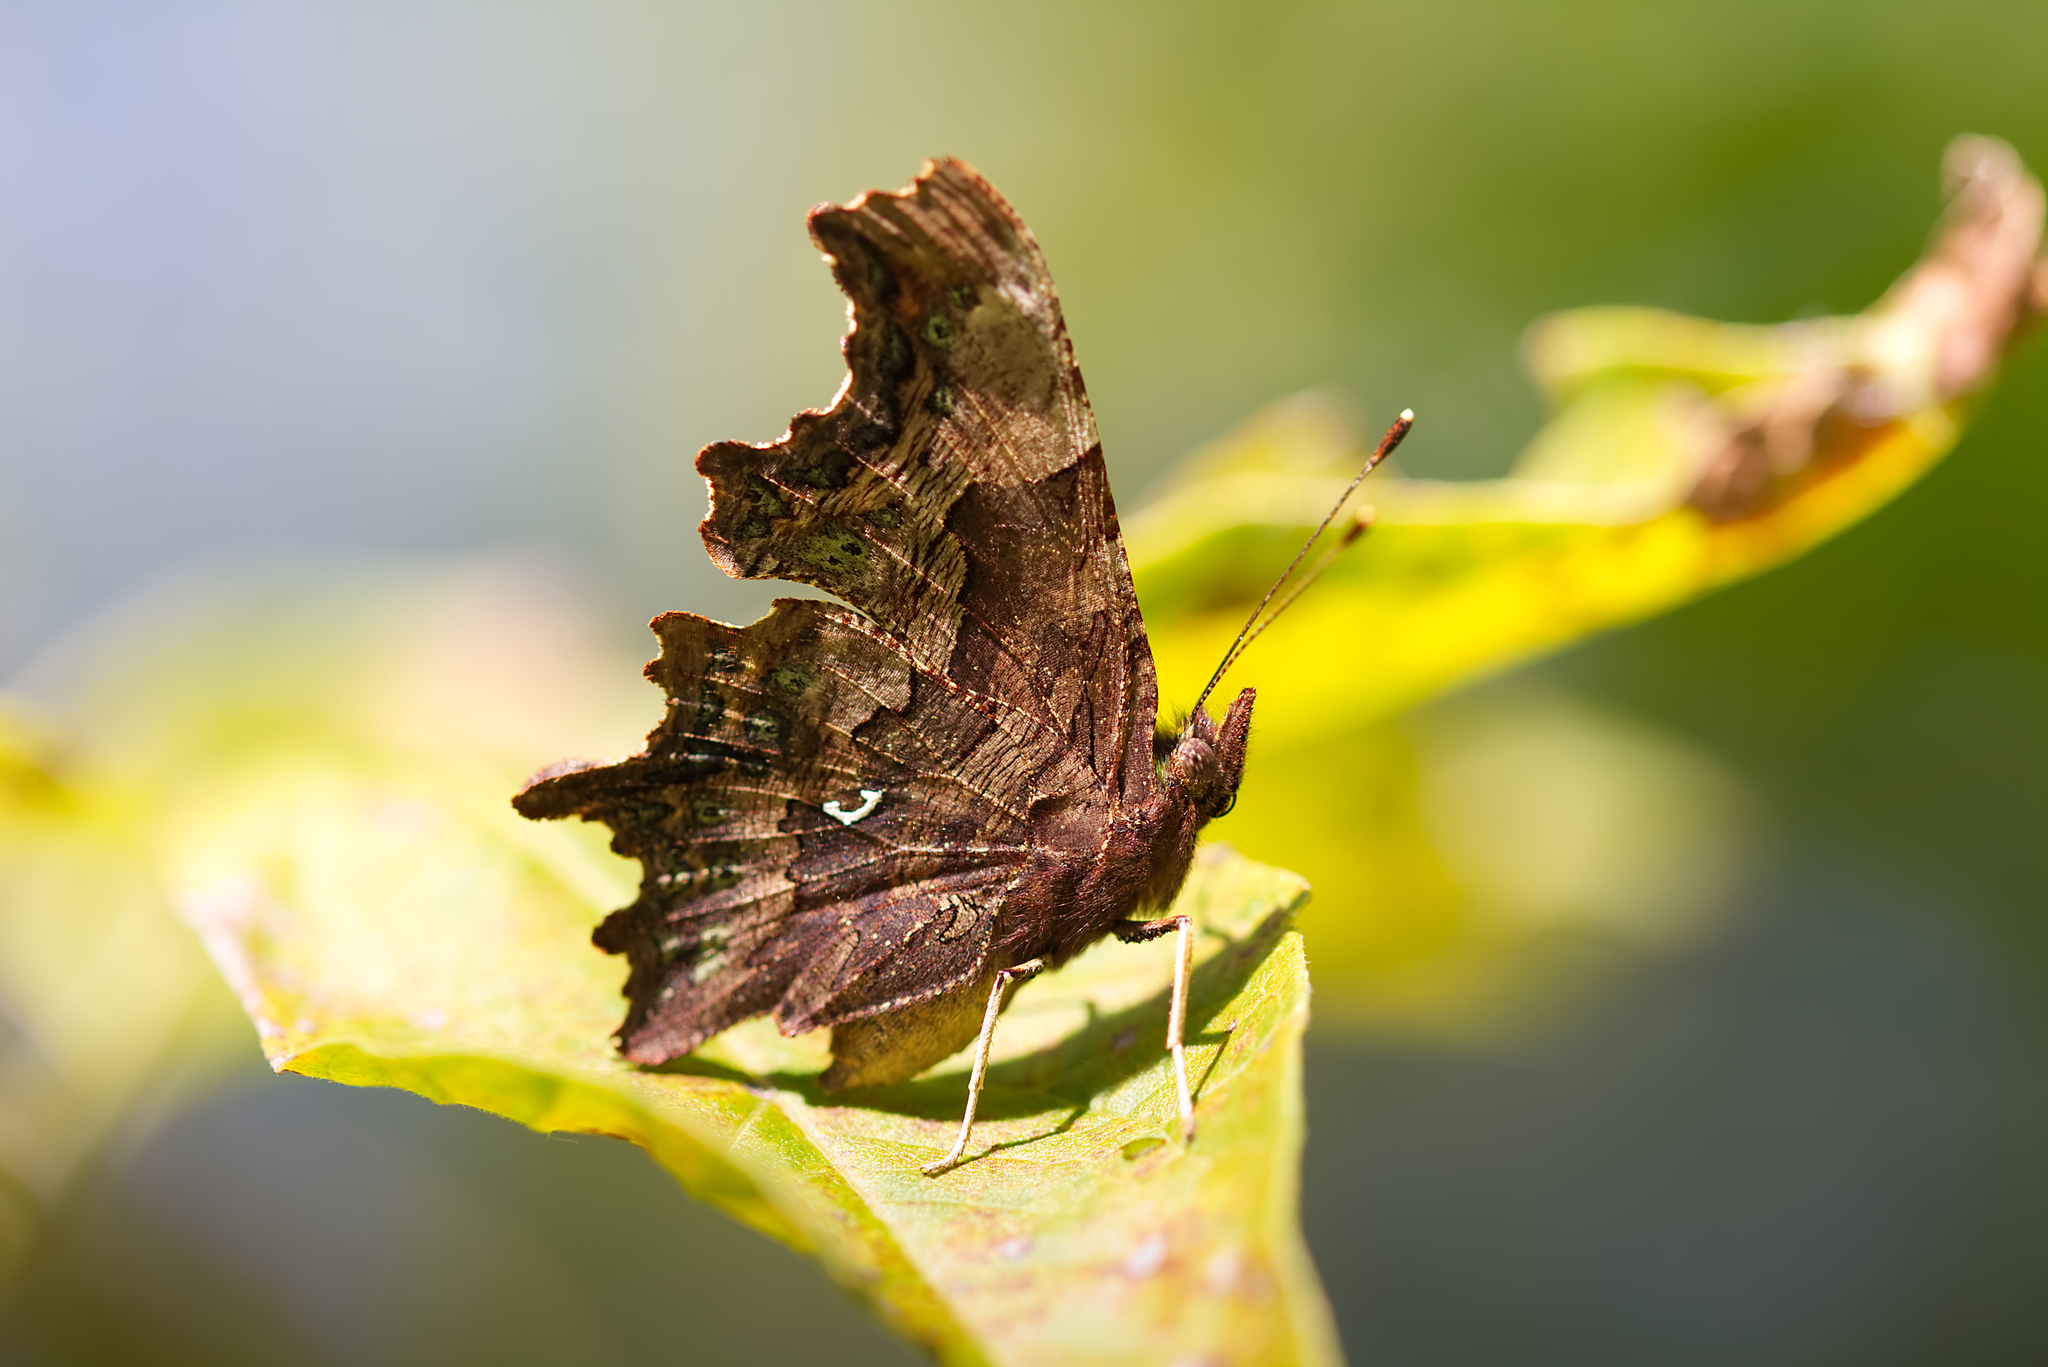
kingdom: Animalia
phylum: Arthropoda
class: Insecta
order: Lepidoptera
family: Nymphalidae
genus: Polygonia
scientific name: Polygonia c-album
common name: Comma
